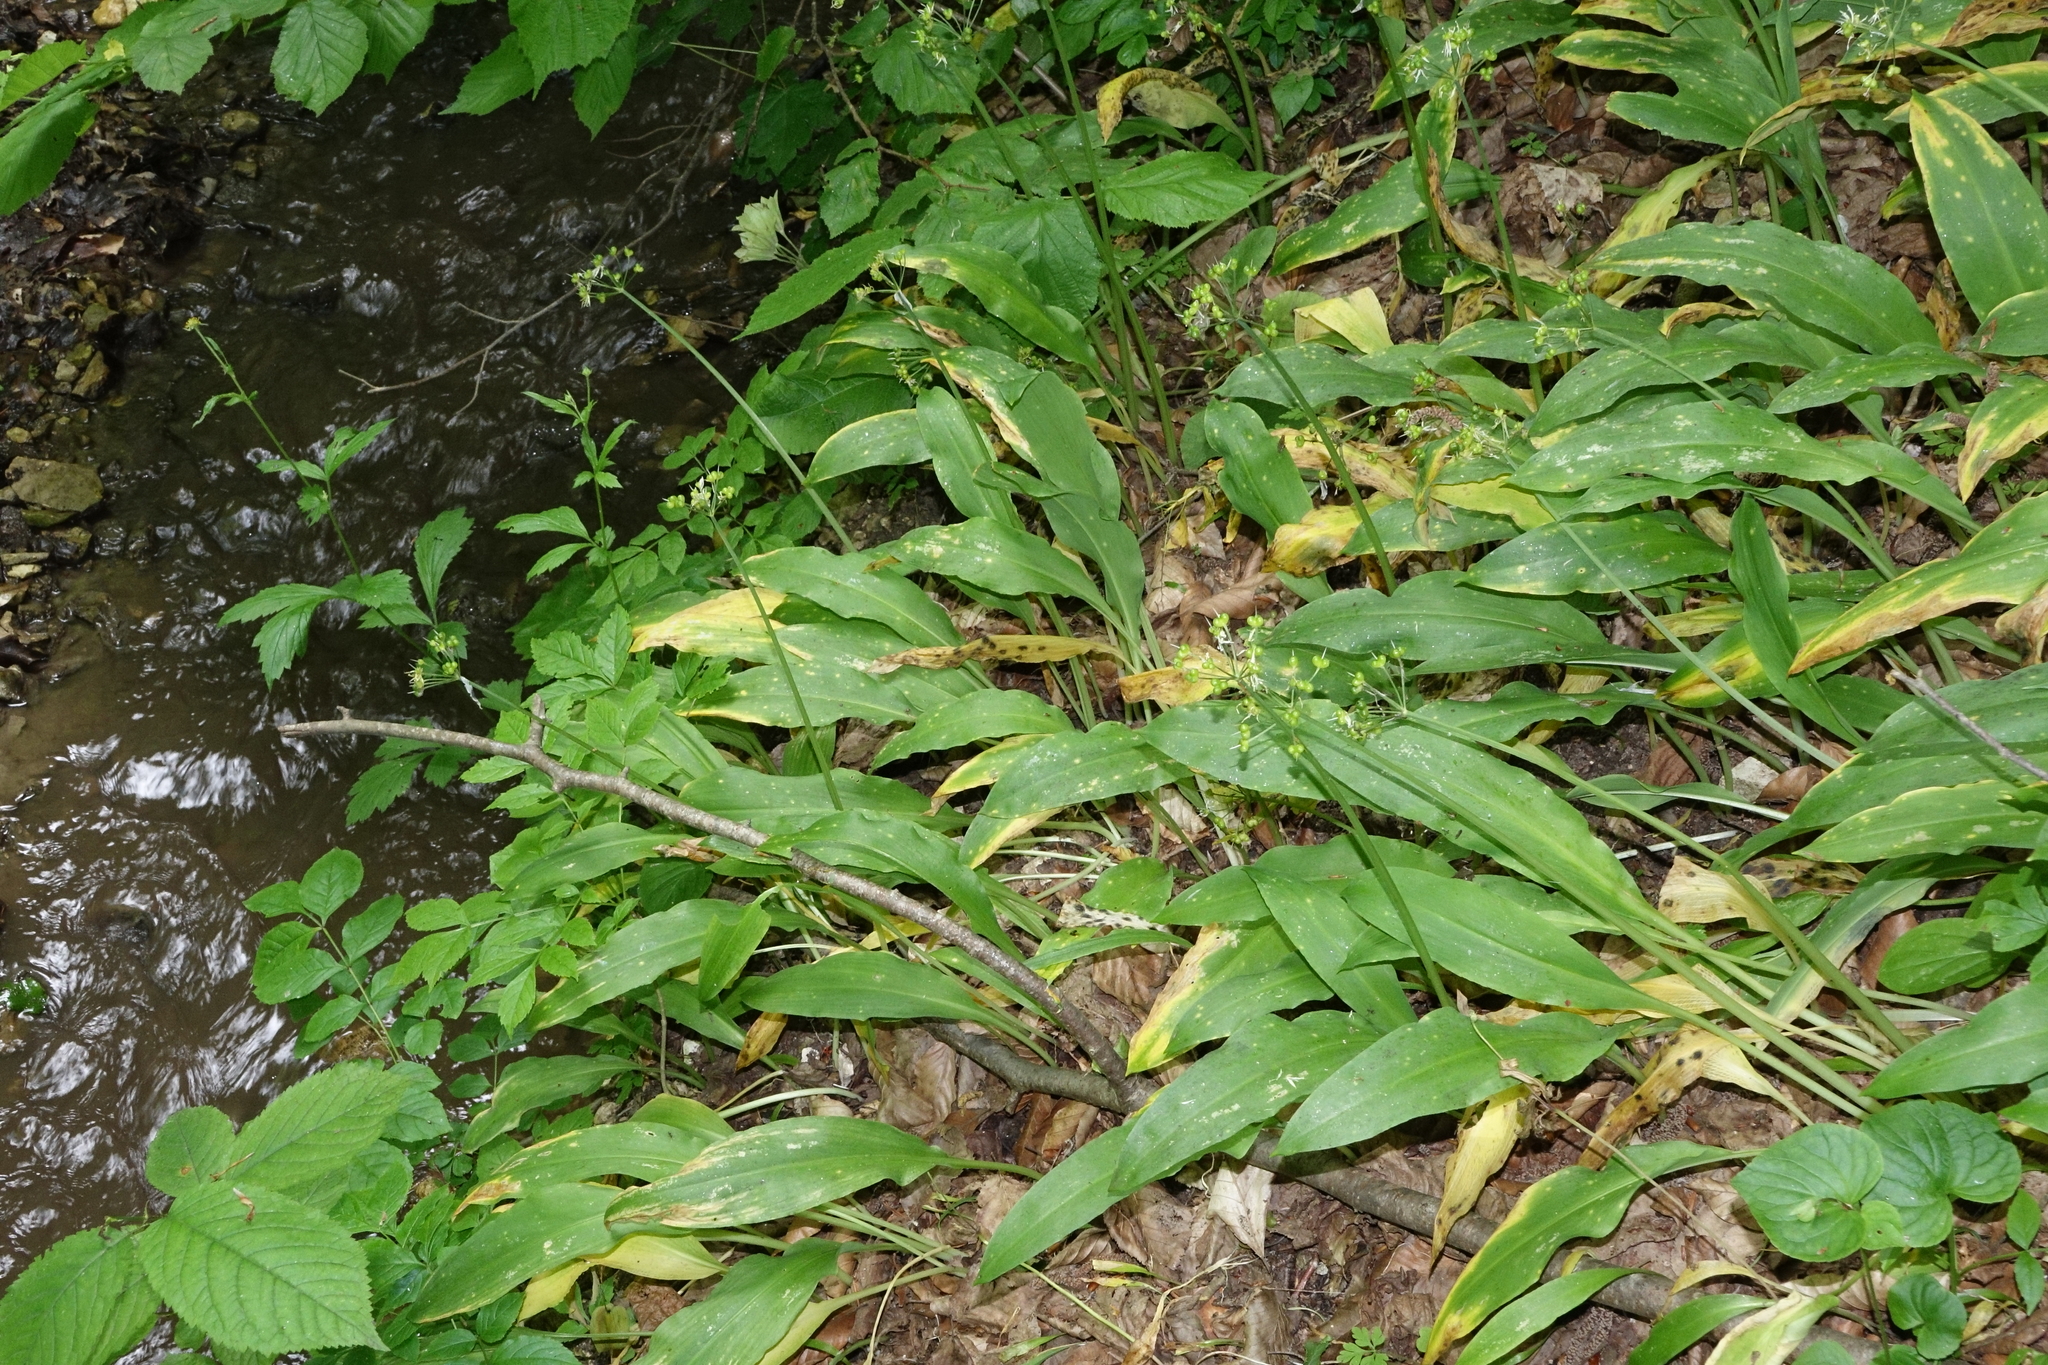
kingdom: Plantae
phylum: Tracheophyta
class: Liliopsida
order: Asparagales
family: Amaryllidaceae
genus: Allium
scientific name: Allium ursinum
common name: Ramsons
